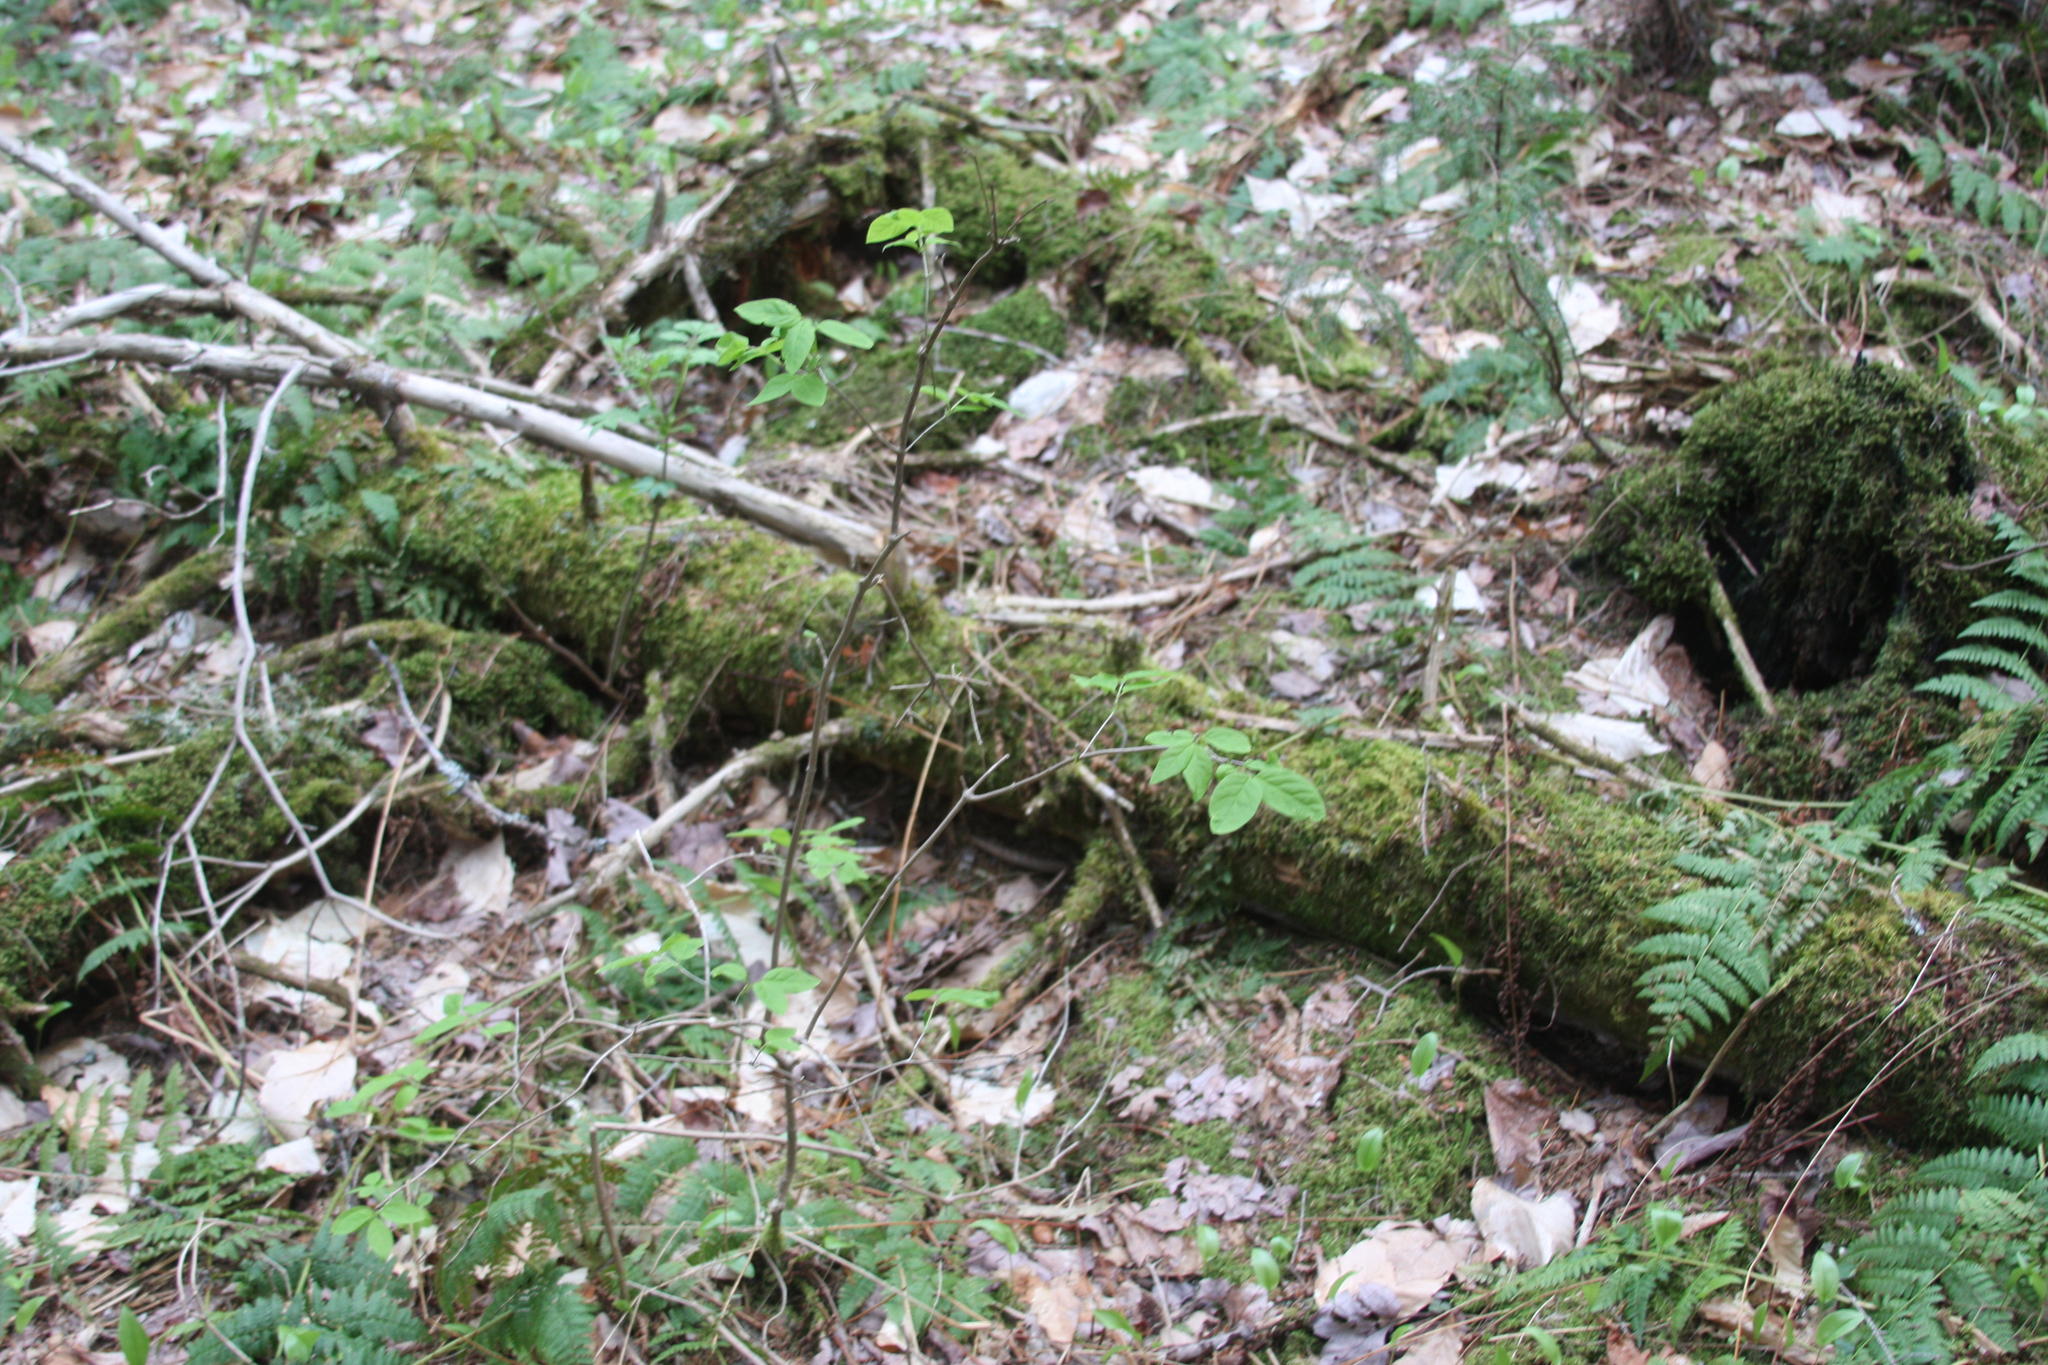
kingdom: Plantae
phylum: Tracheophyta
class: Magnoliopsida
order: Dipsacales
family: Caprifoliaceae
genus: Lonicera
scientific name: Lonicera canadensis
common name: American fly-honeysuckle
